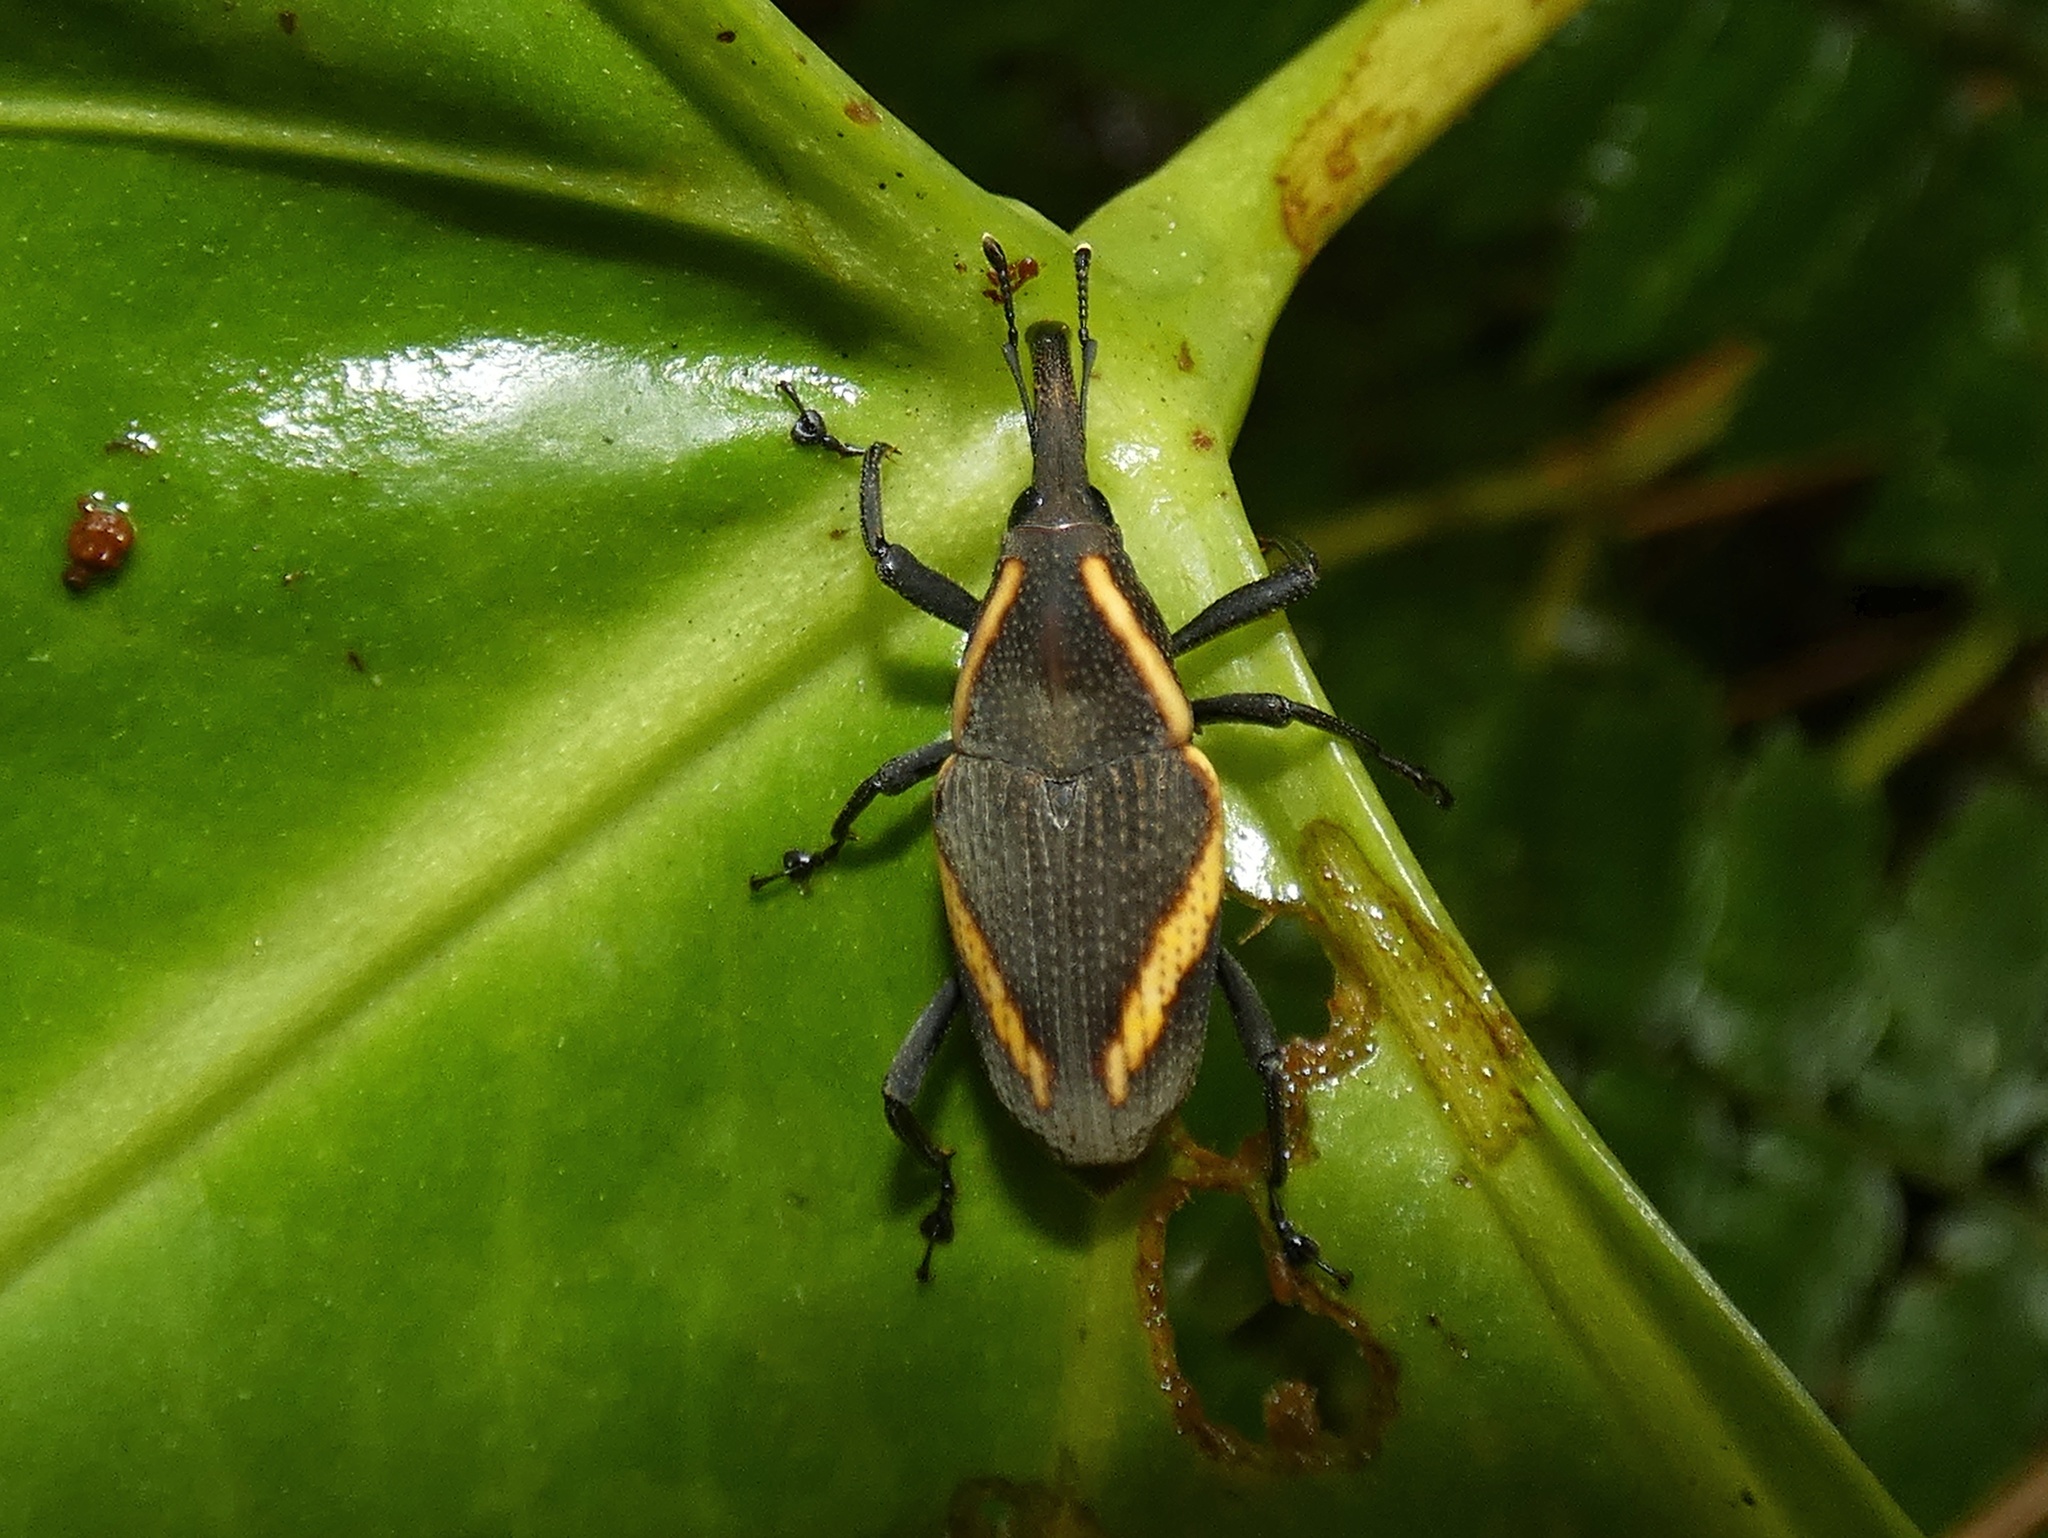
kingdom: Animalia
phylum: Arthropoda
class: Insecta
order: Coleoptera
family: Dryophthoridae
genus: Cactophagus
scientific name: Cactophagus circumjectus
